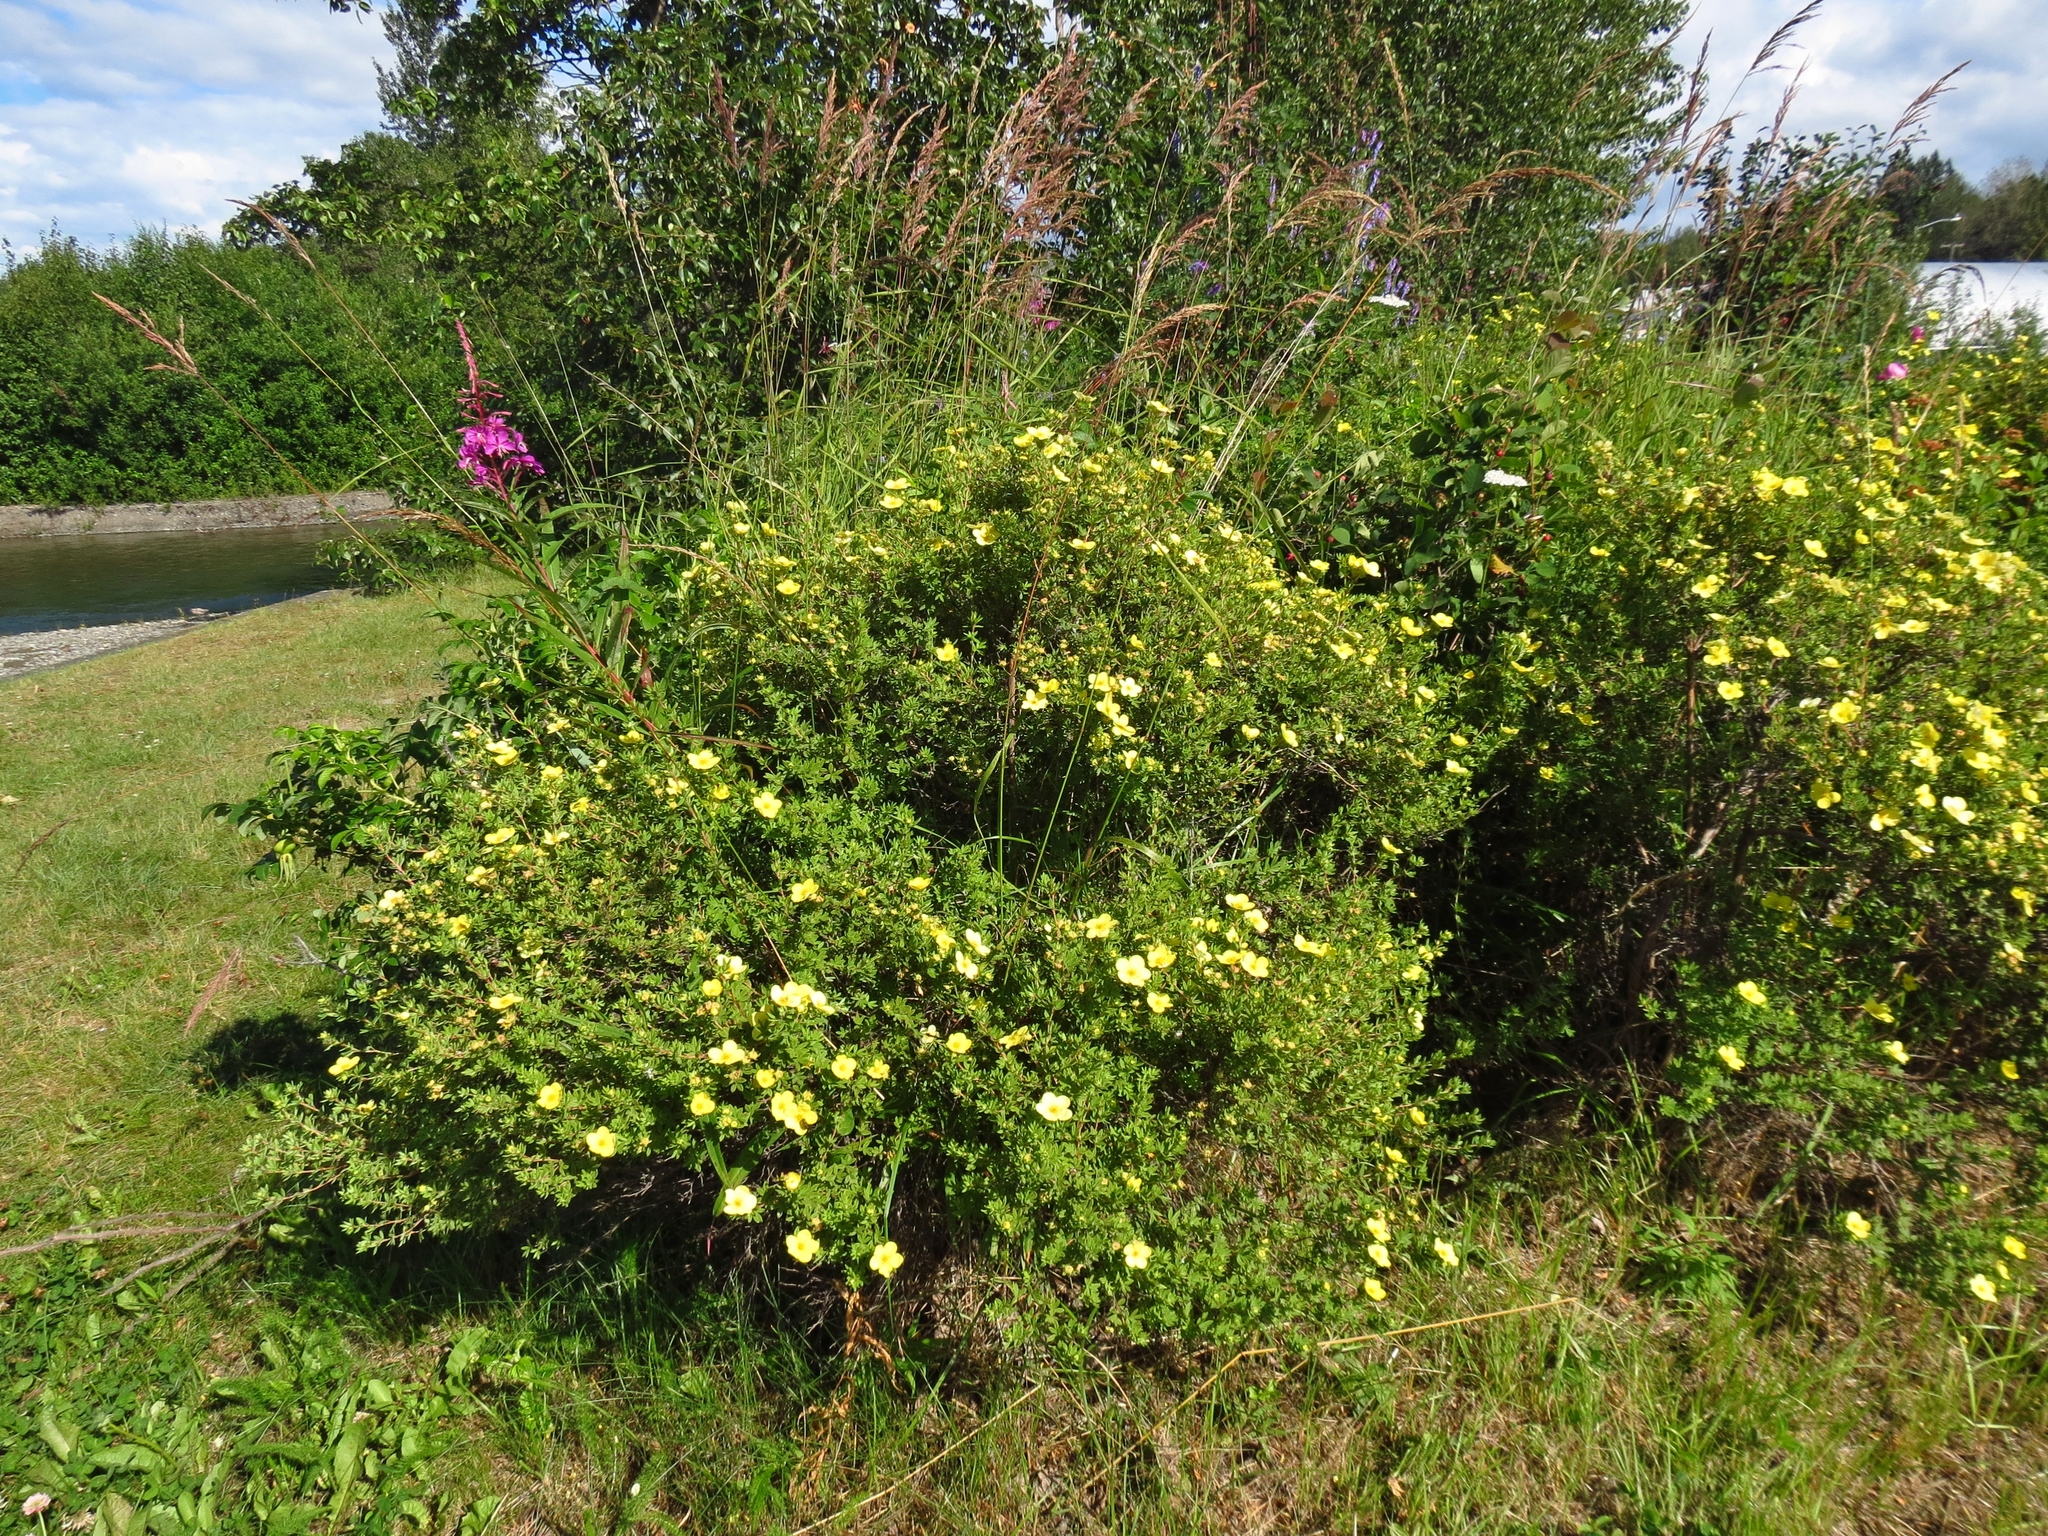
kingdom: Plantae
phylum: Tracheophyta
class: Magnoliopsida
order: Rosales
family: Rosaceae
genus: Dasiphora
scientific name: Dasiphora fruticosa
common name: Shrubby cinquefoil
